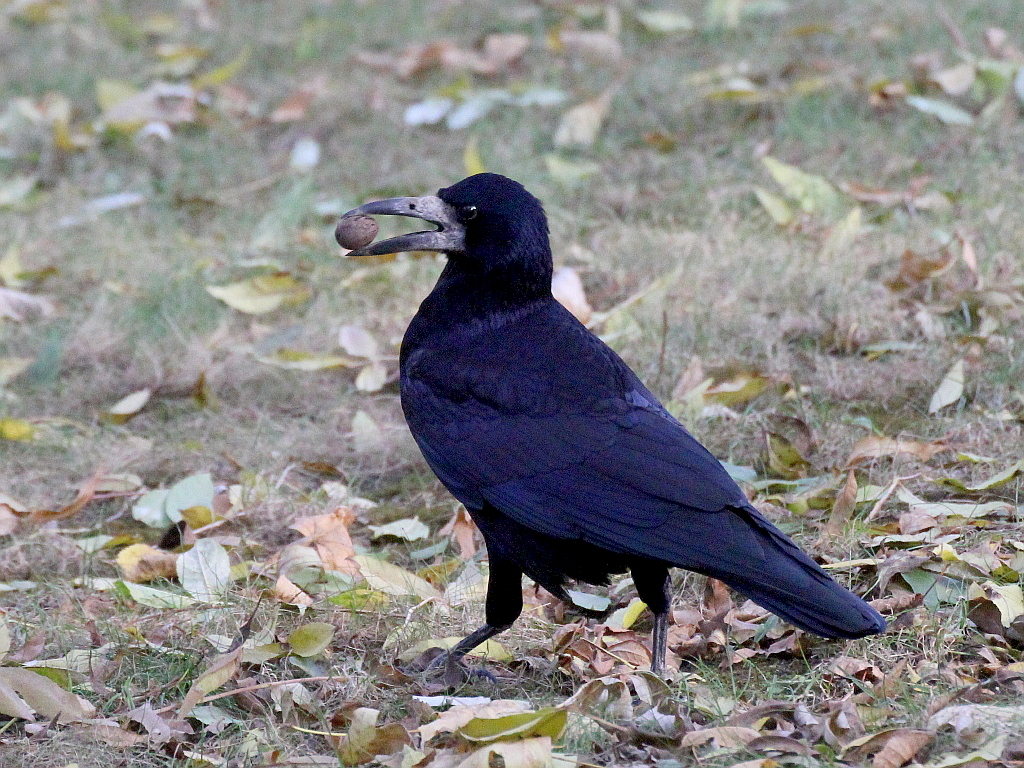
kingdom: Animalia
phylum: Chordata
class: Aves
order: Passeriformes
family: Corvidae
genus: Corvus
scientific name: Corvus frugilegus
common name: Rook
